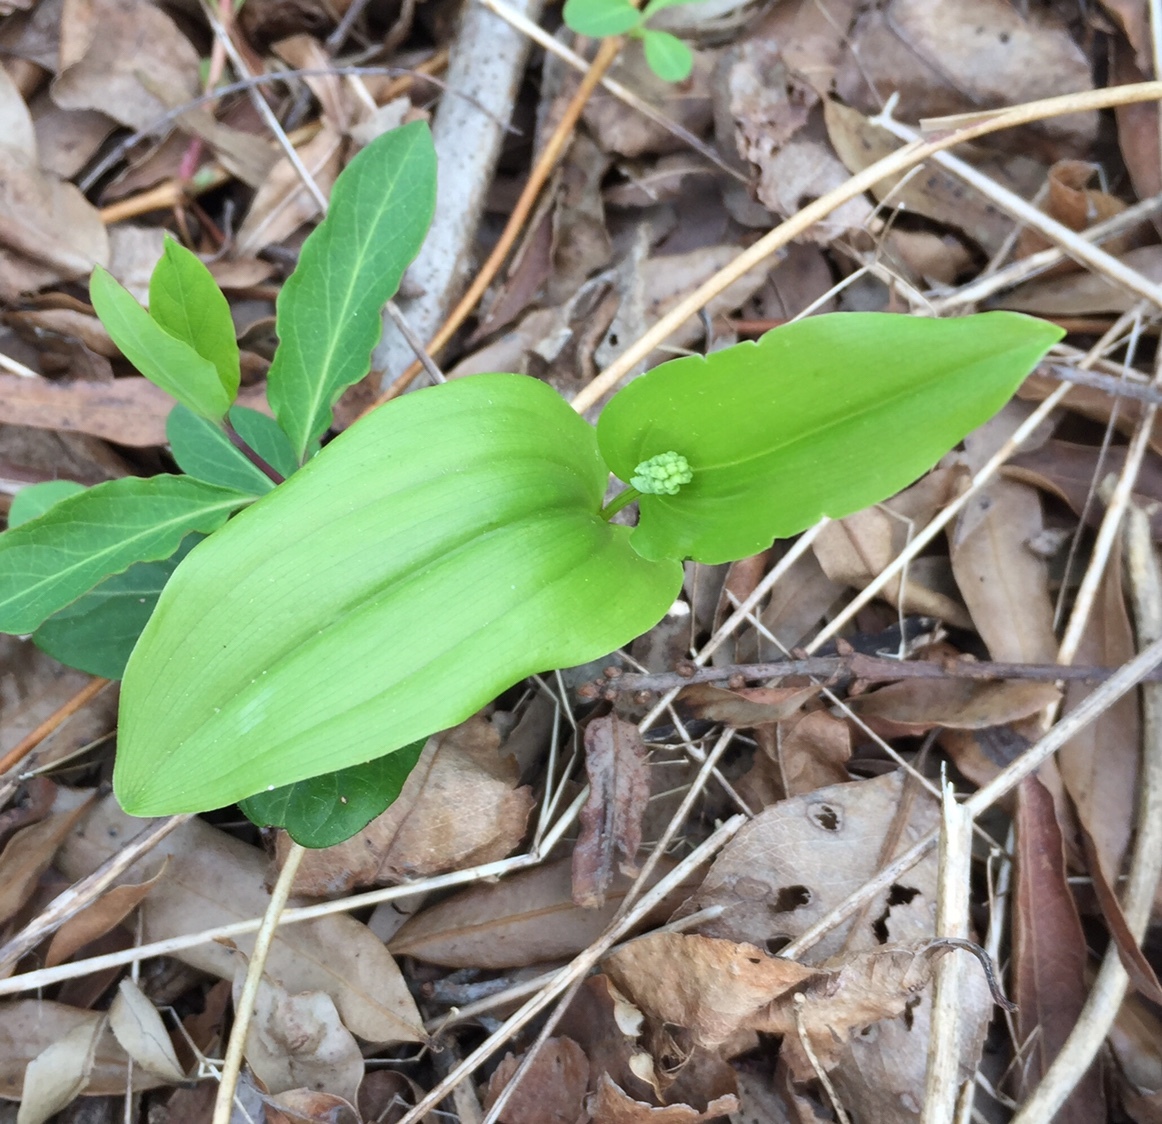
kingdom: Plantae
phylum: Tracheophyta
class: Liliopsida
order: Asparagales
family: Asparagaceae
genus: Maianthemum
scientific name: Maianthemum canadense
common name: False lily-of-the-valley
